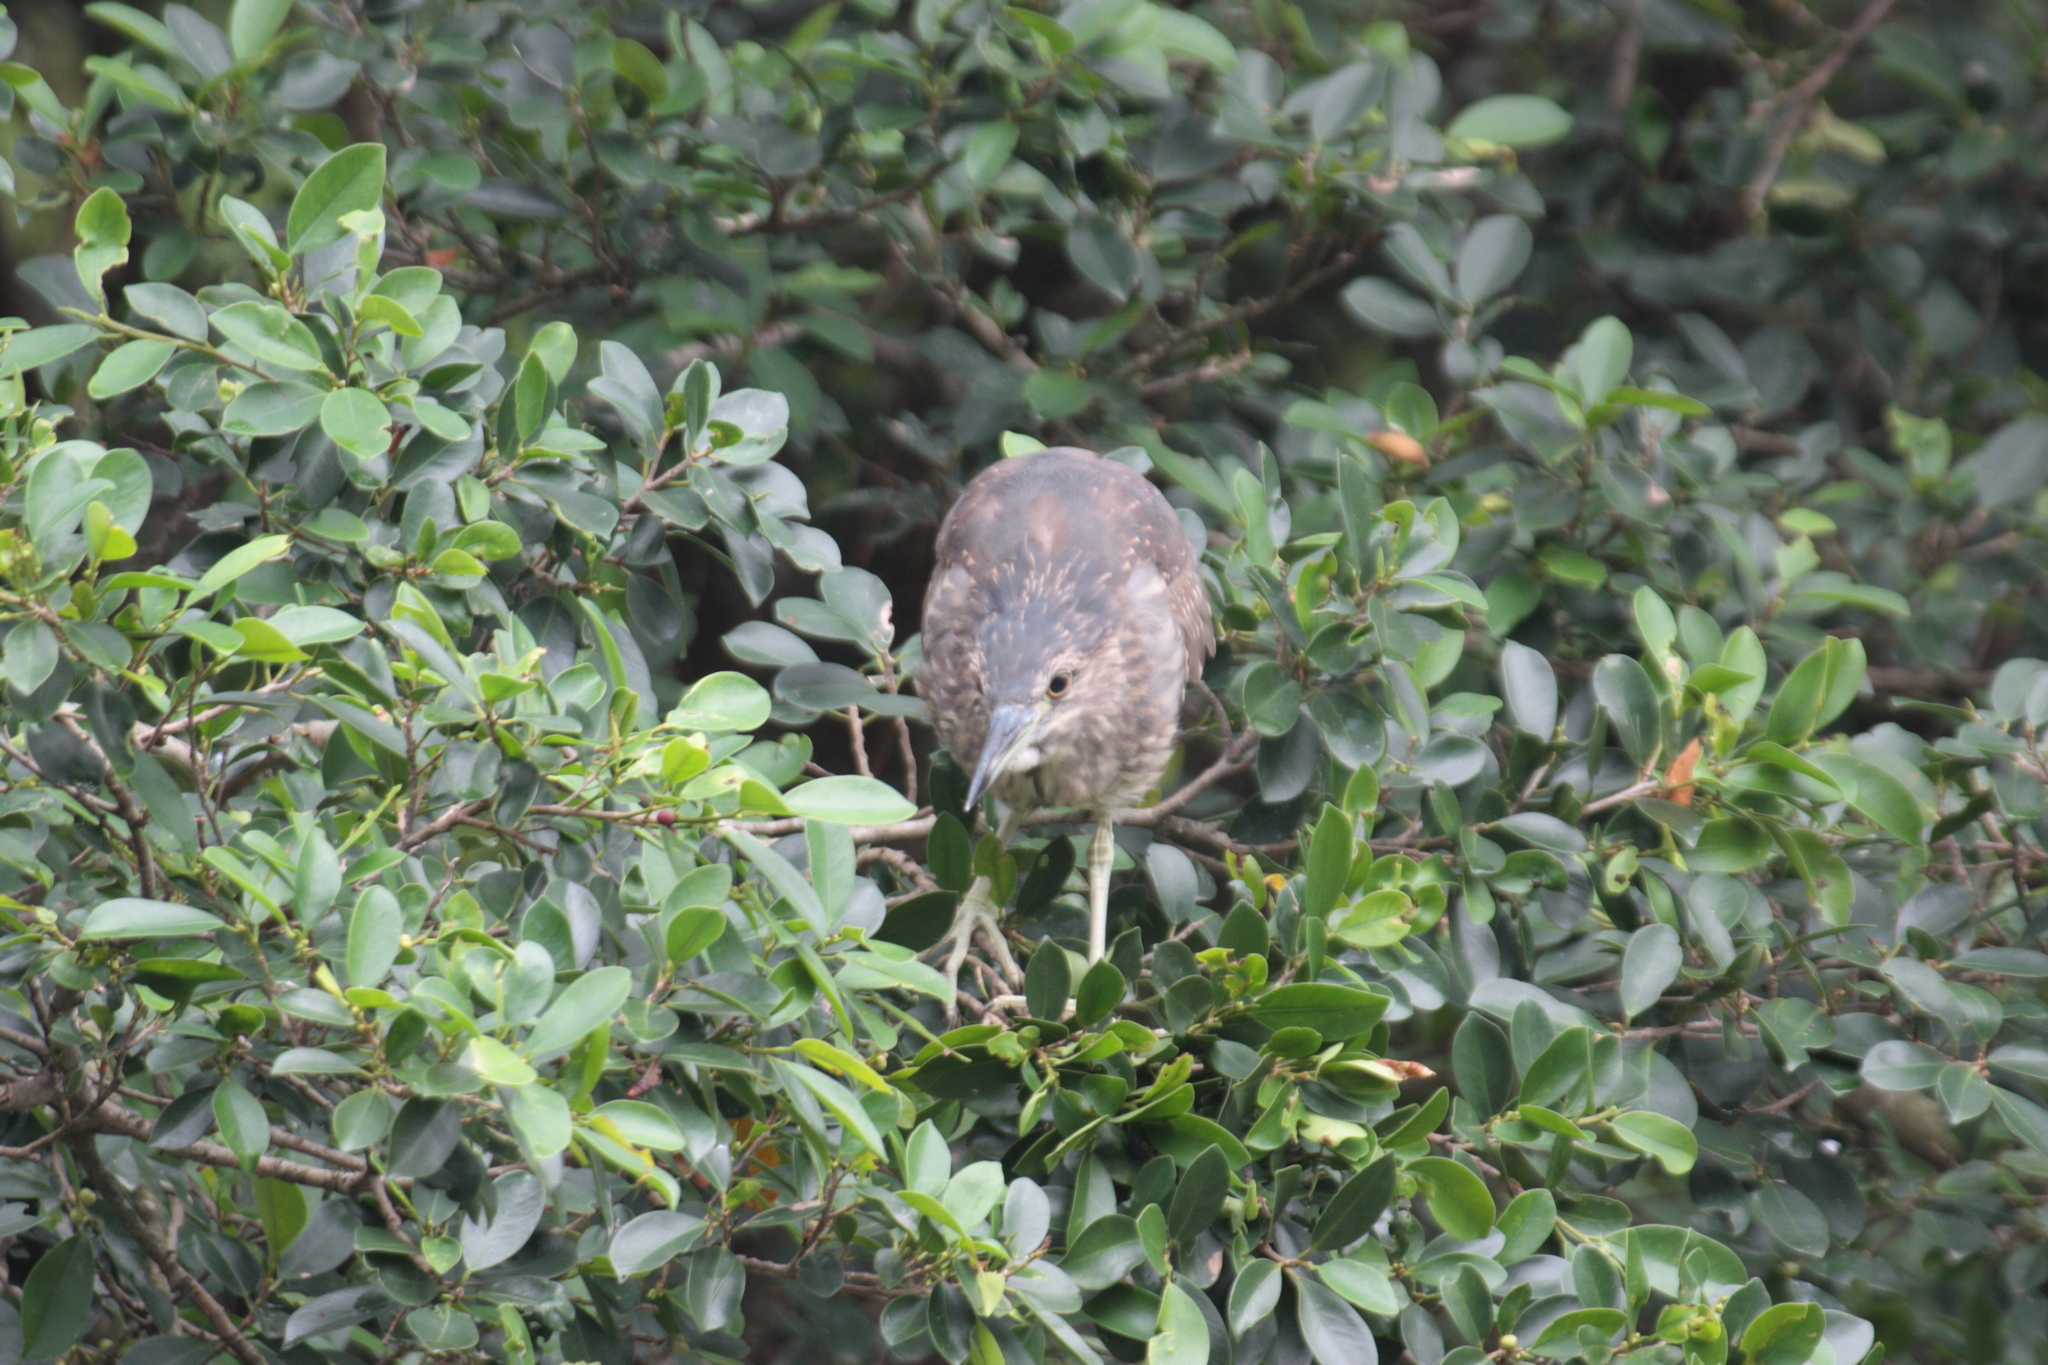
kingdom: Animalia
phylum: Chordata
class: Aves
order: Pelecaniformes
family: Ardeidae
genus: Nycticorax
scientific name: Nycticorax nycticorax
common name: Black-crowned night heron
